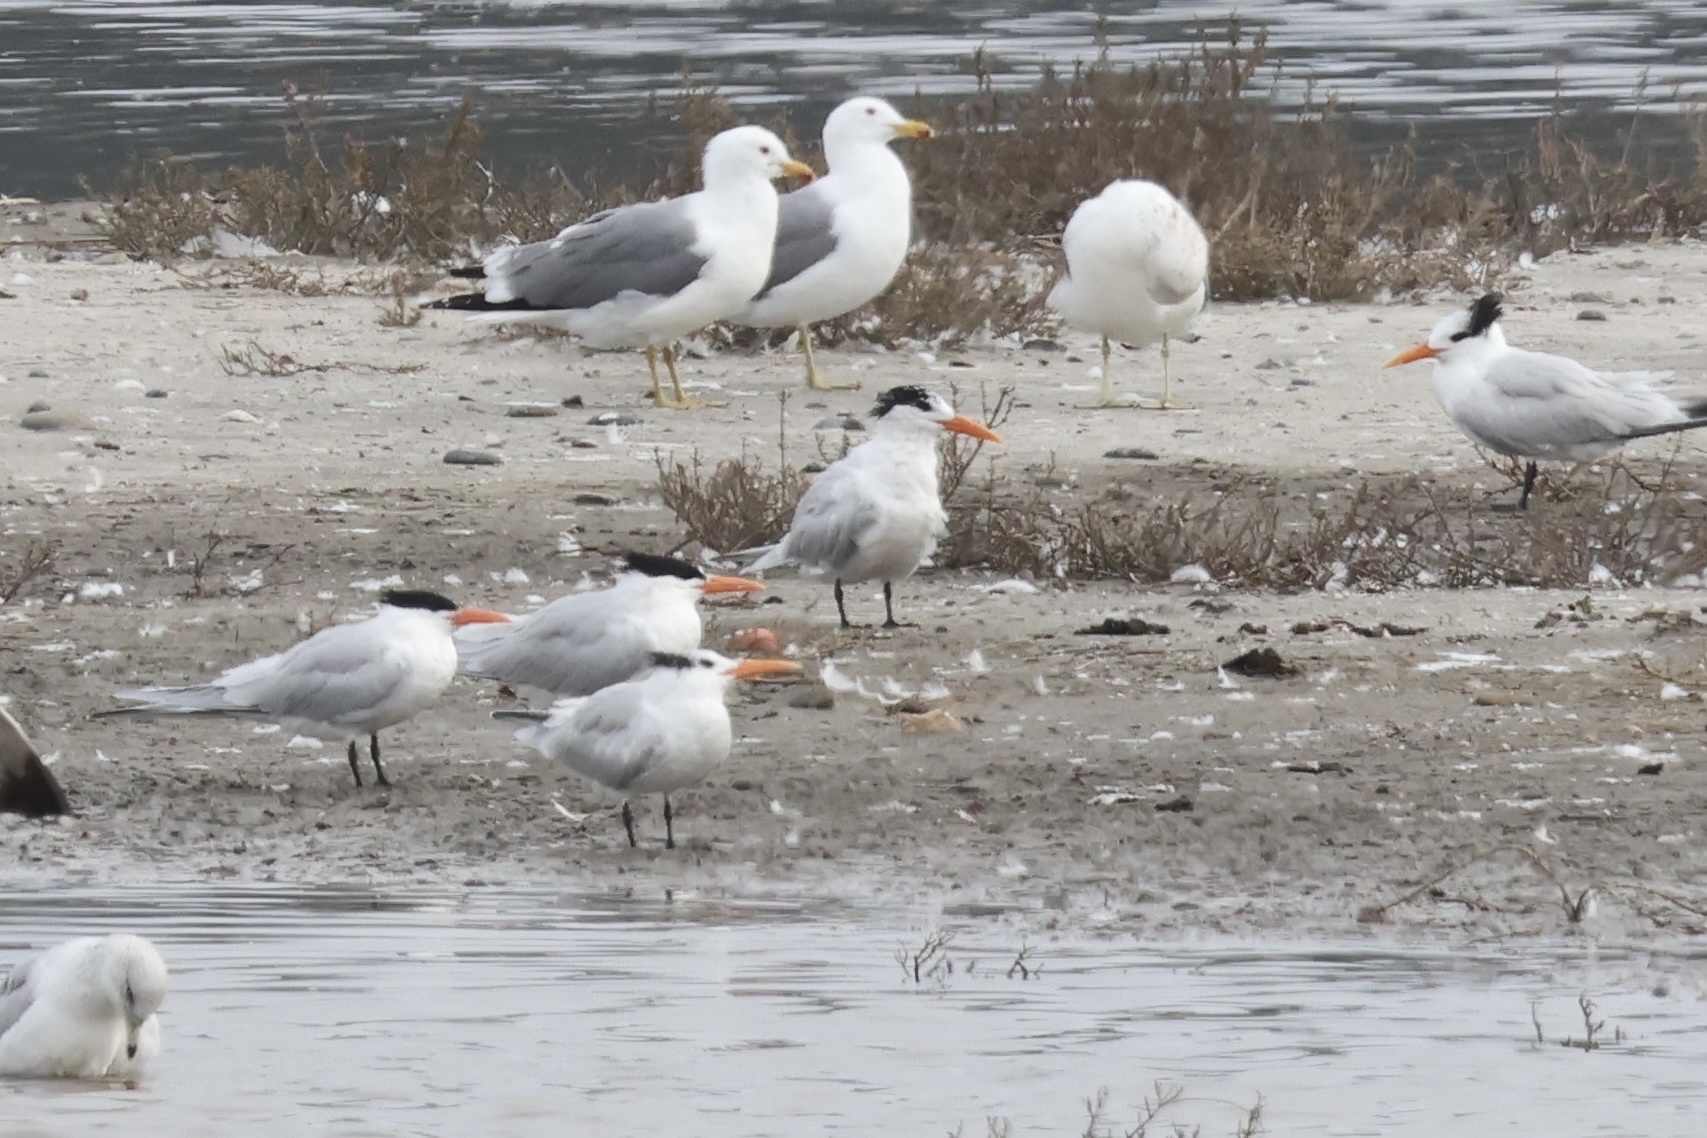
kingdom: Animalia
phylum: Chordata
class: Aves
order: Charadriiformes
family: Laridae
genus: Thalasseus
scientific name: Thalasseus maximus
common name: Royal tern
